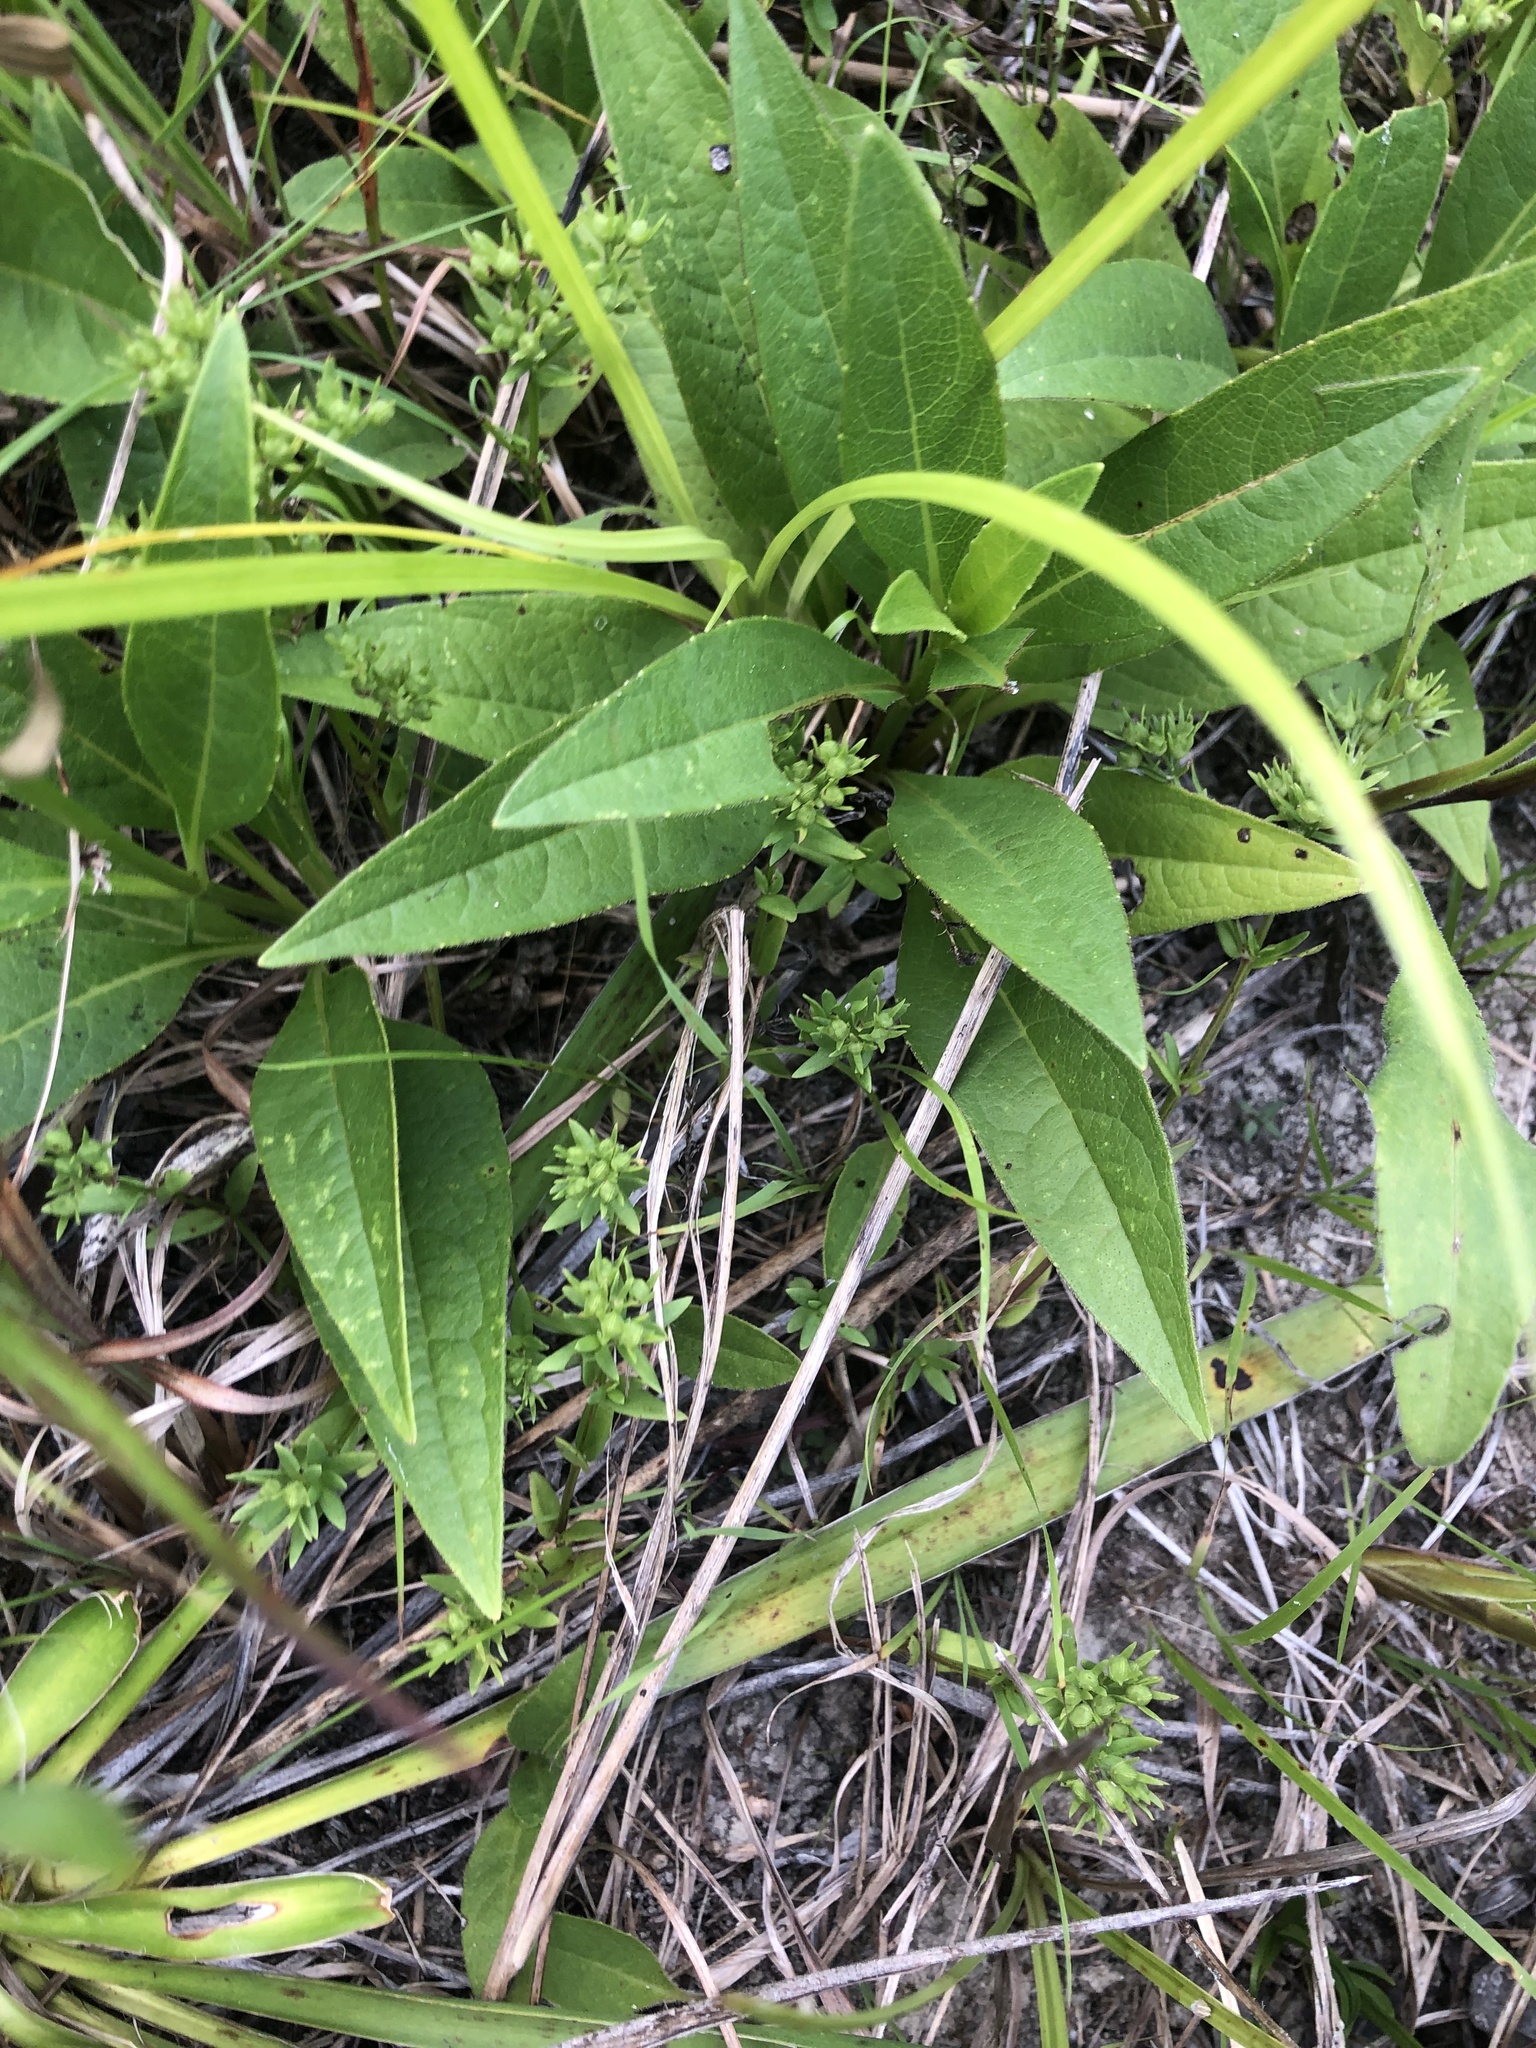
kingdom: Plantae
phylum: Tracheophyta
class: Magnoliopsida
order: Gentianales
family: Rubiaceae
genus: Houstonia
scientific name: Houstonia purpurea
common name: Summer bluet
